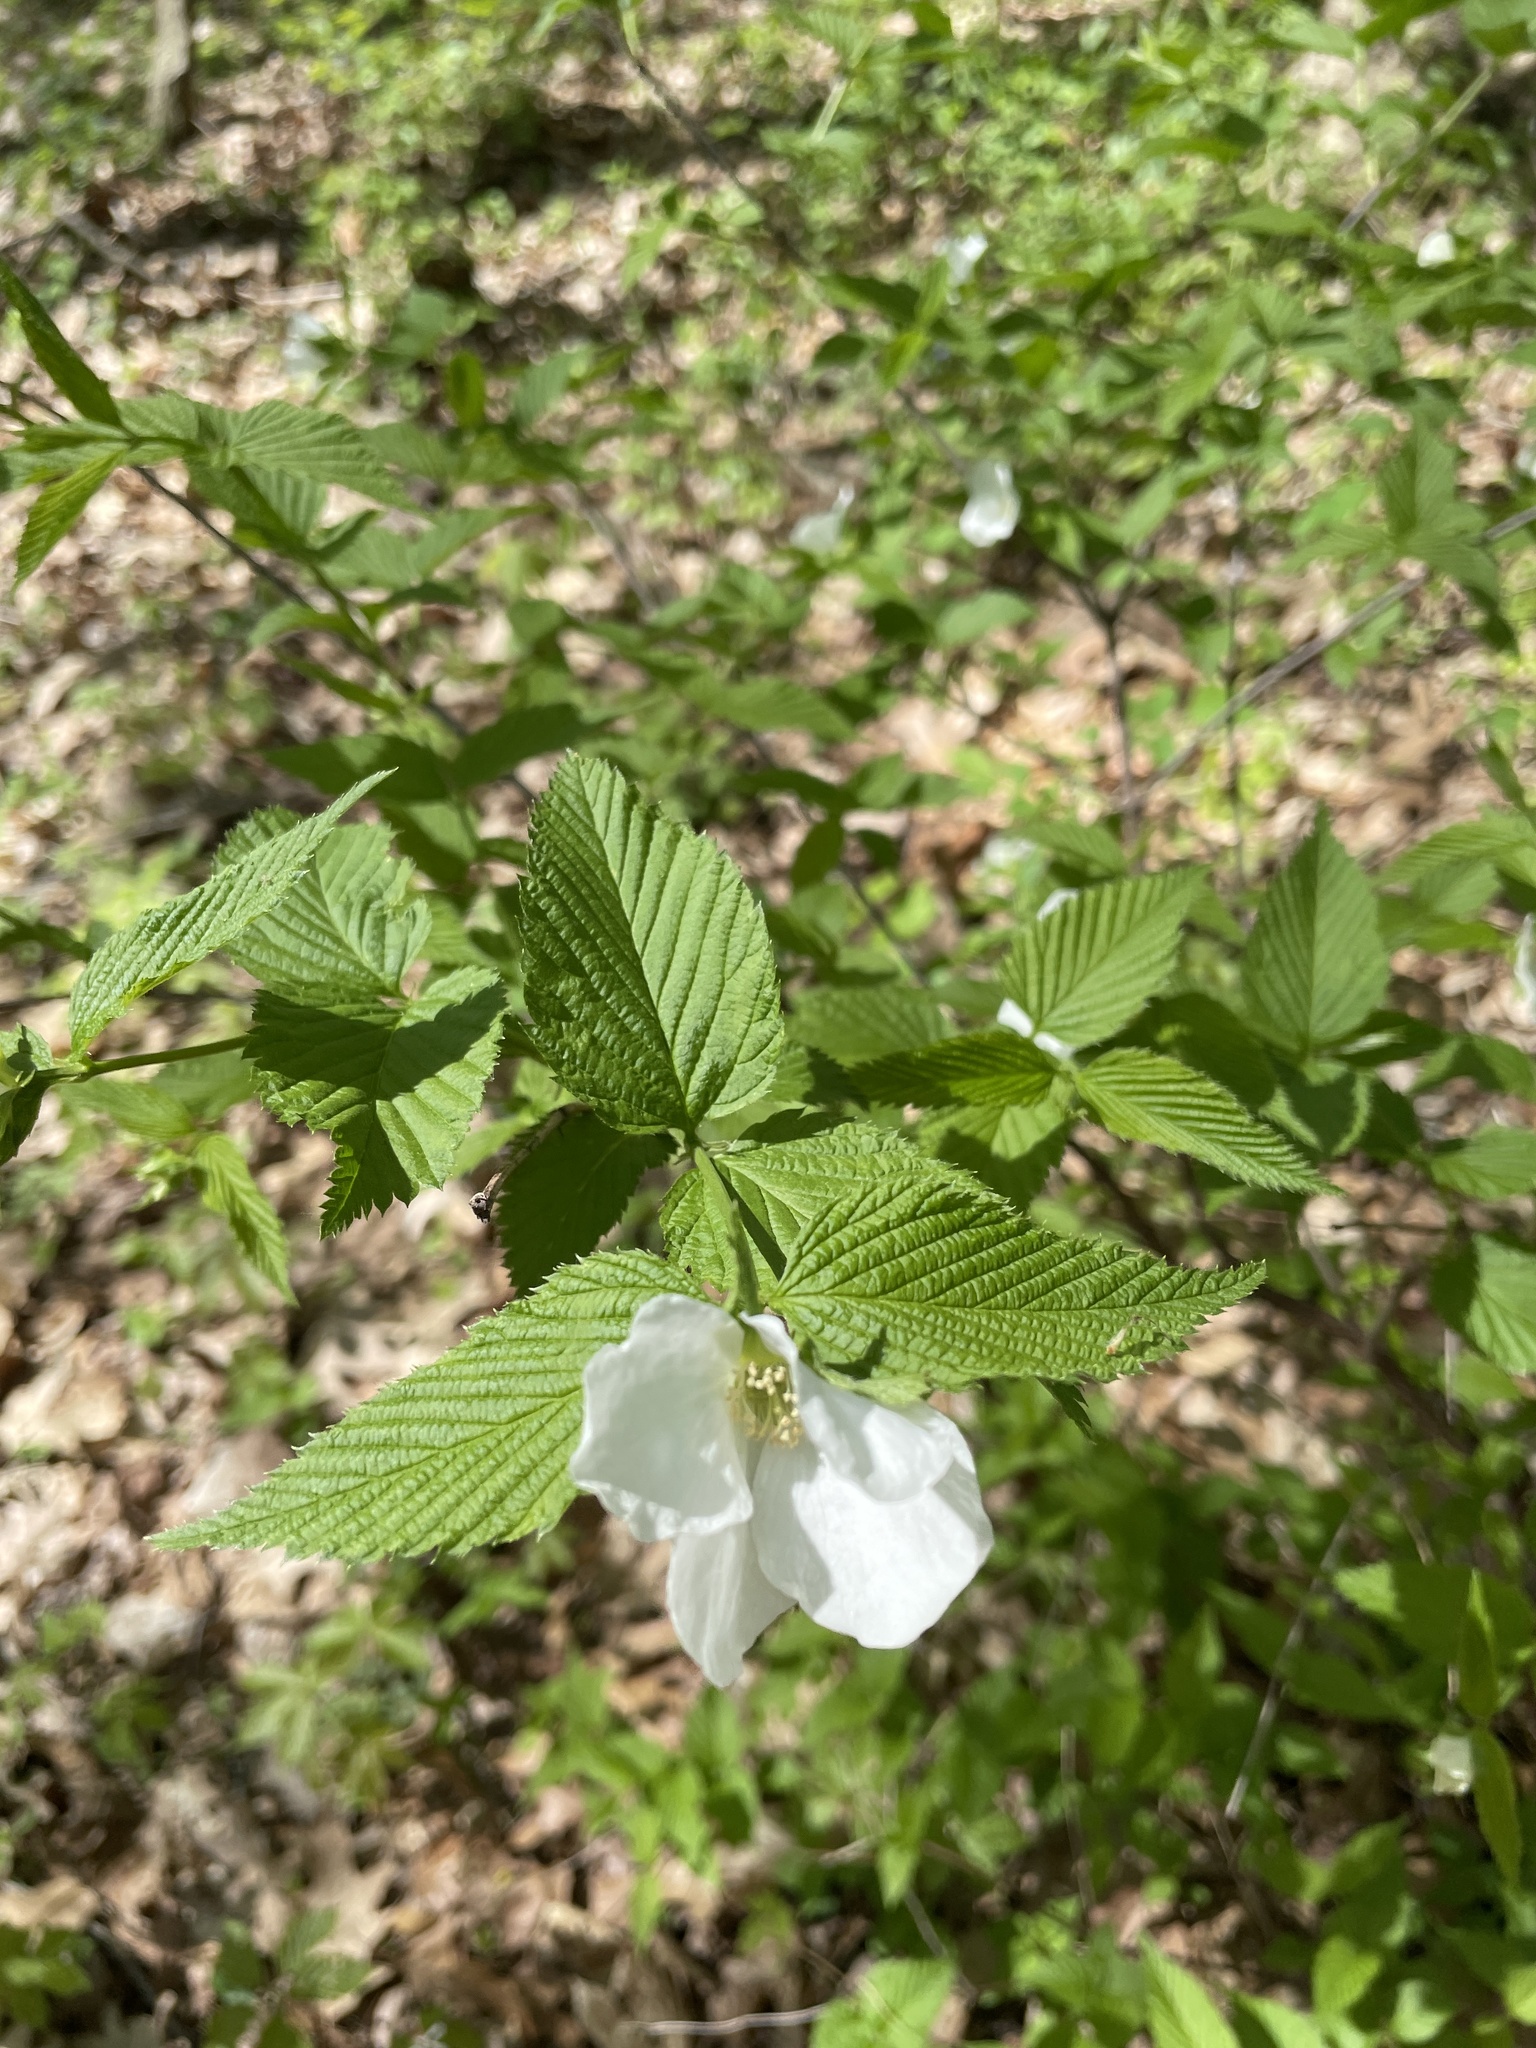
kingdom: Plantae
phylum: Tracheophyta
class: Magnoliopsida
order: Rosales
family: Rosaceae
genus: Rhodotypos
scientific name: Rhodotypos scandens
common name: Jetbead
